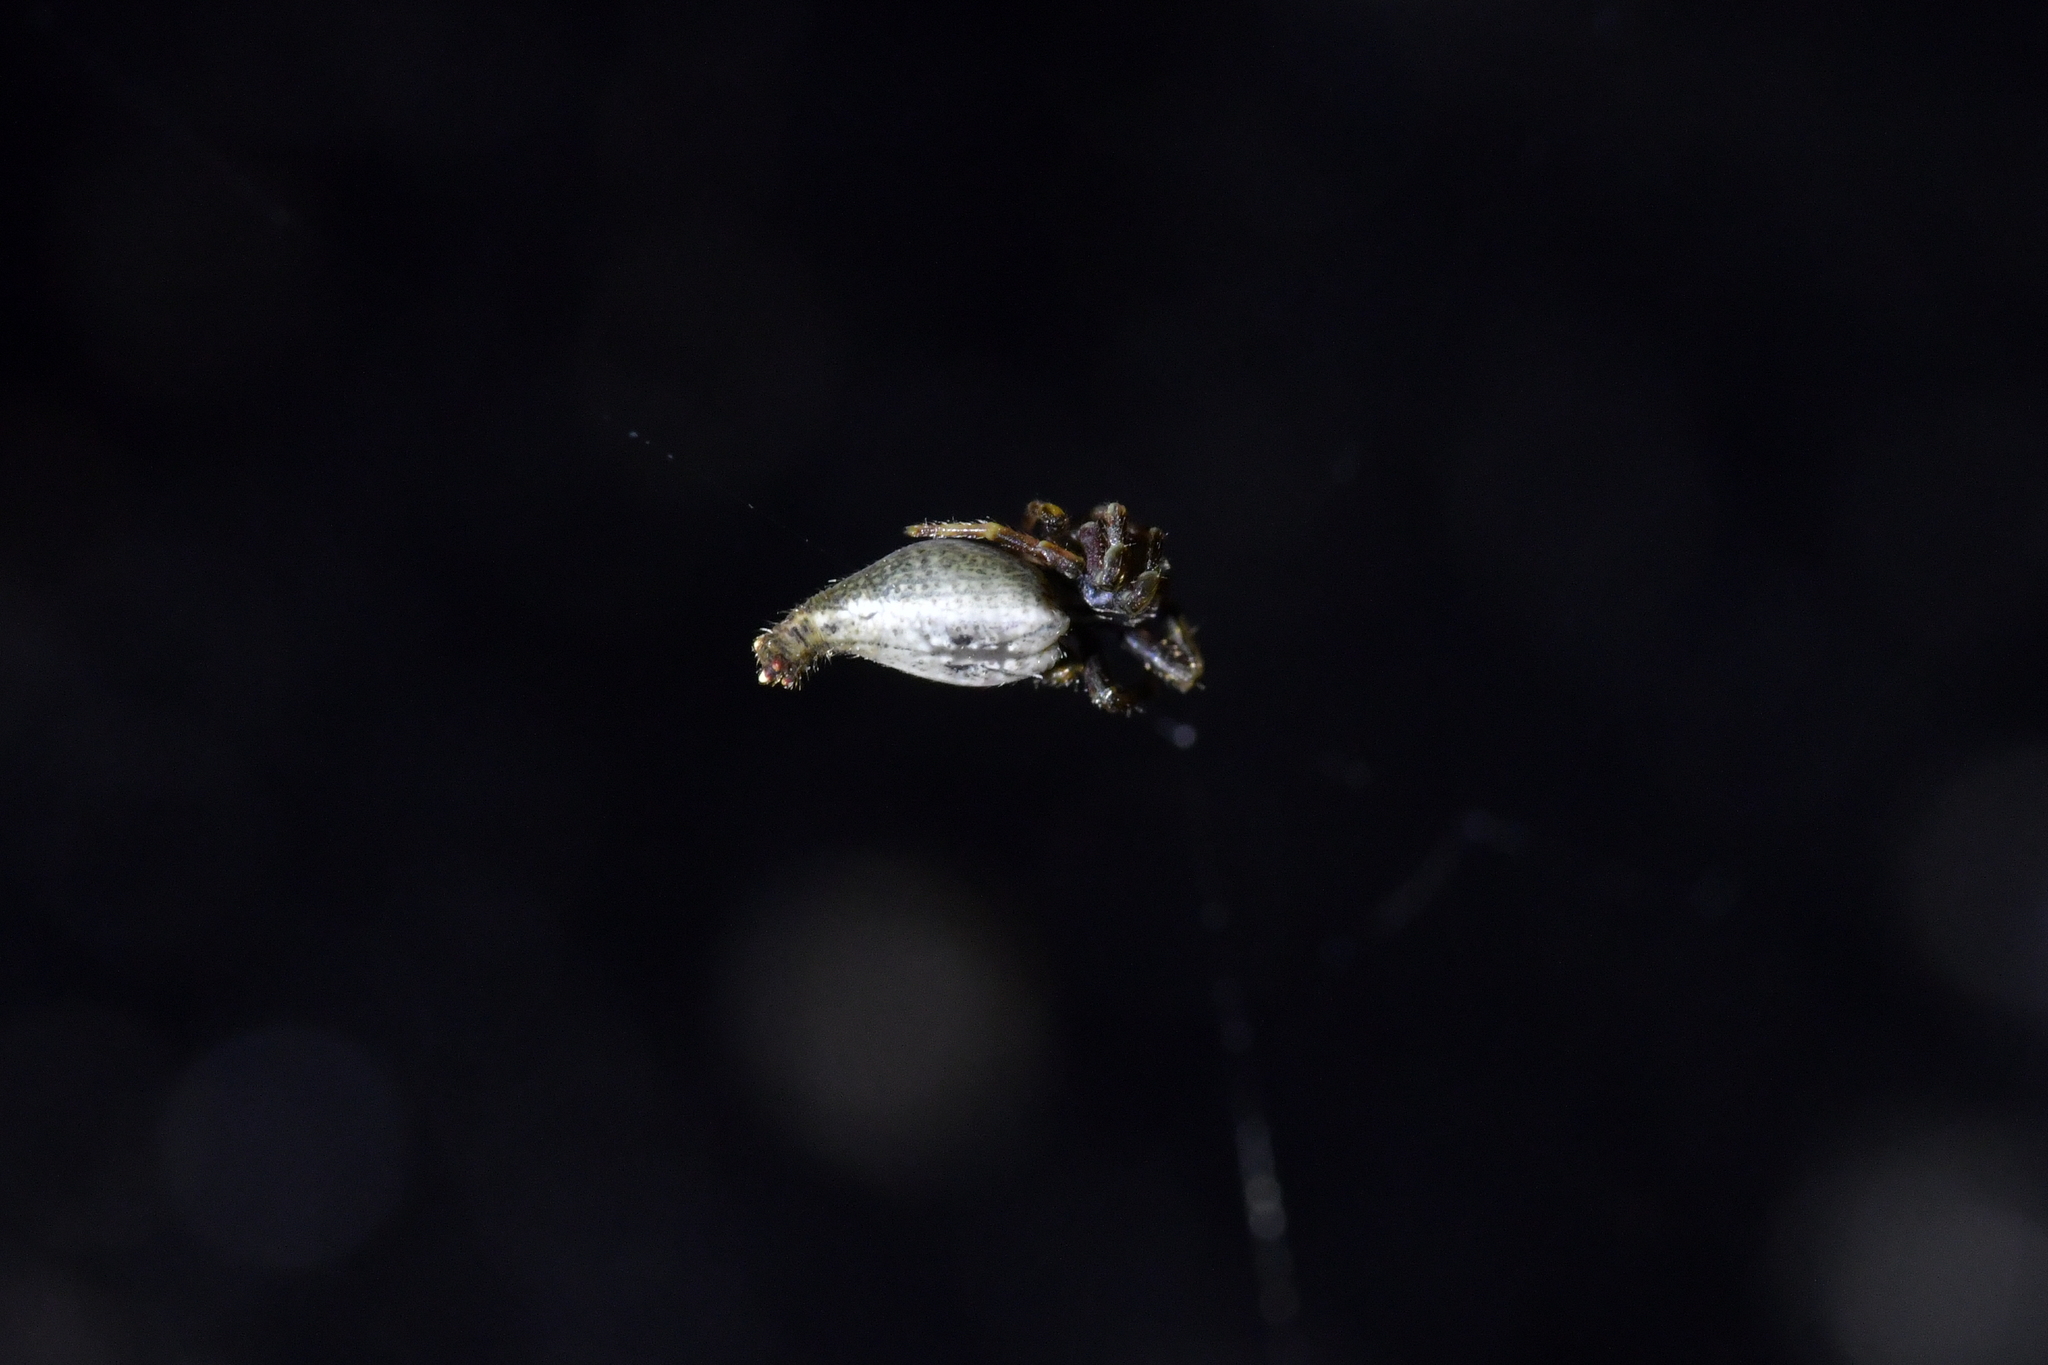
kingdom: Animalia
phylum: Arthropoda
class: Arachnida
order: Araneae
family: Araneidae
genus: Arachnura
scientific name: Arachnura feredayi
